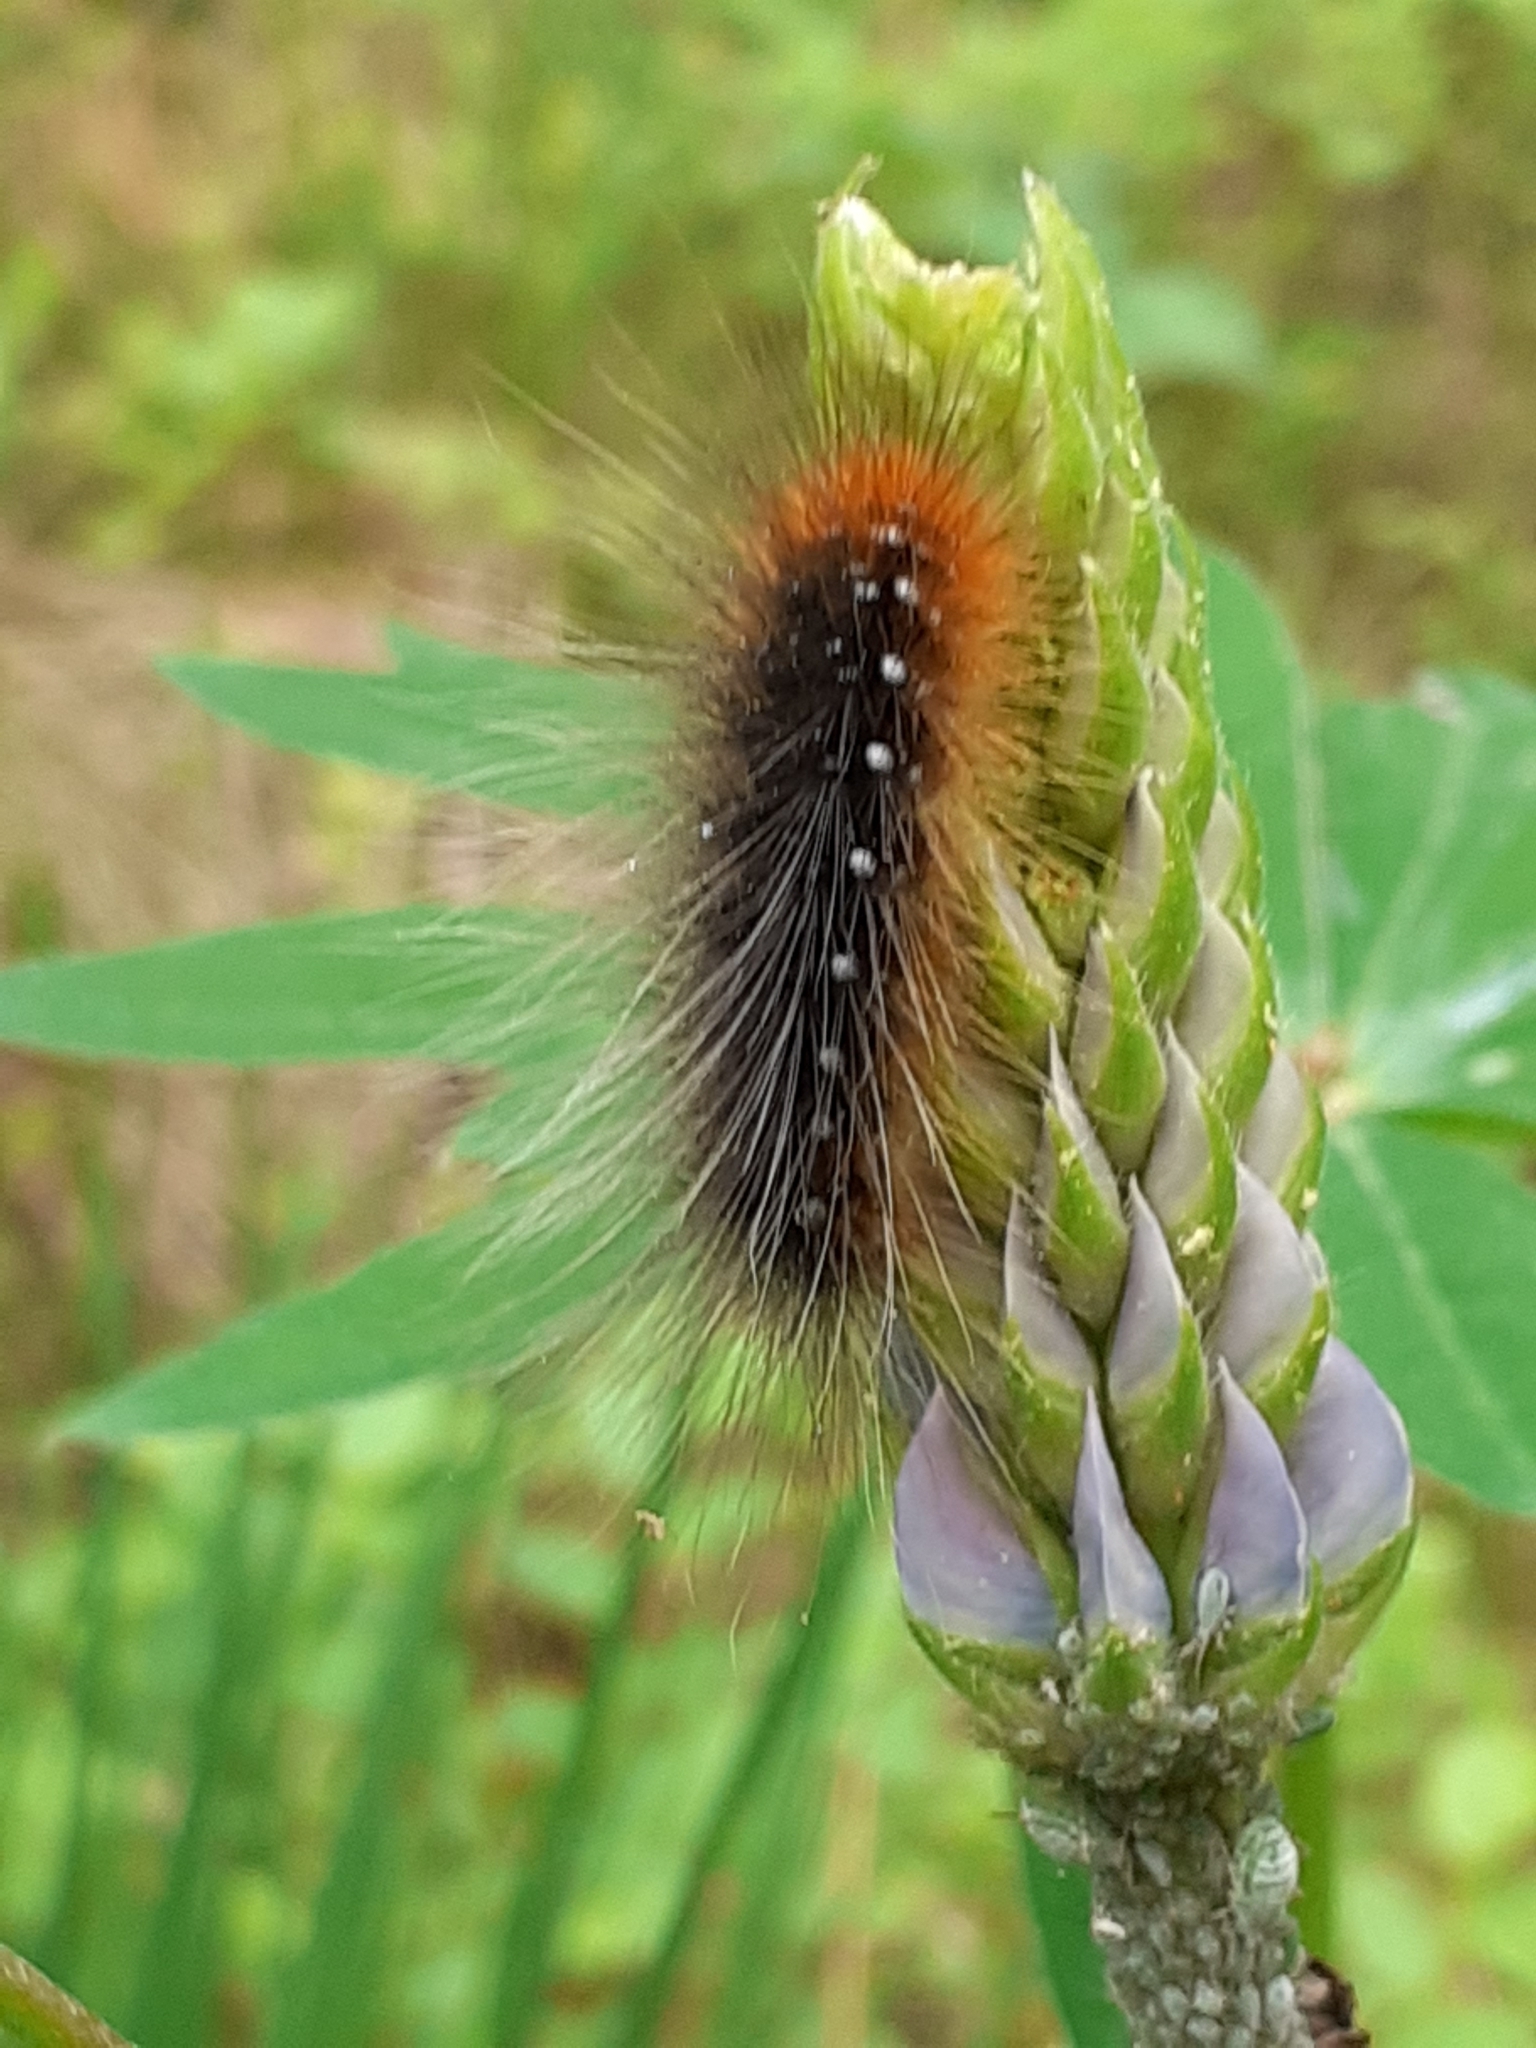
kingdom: Animalia
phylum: Arthropoda
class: Insecta
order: Lepidoptera
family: Erebidae
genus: Arctia
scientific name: Arctia caja
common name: Garden tiger
